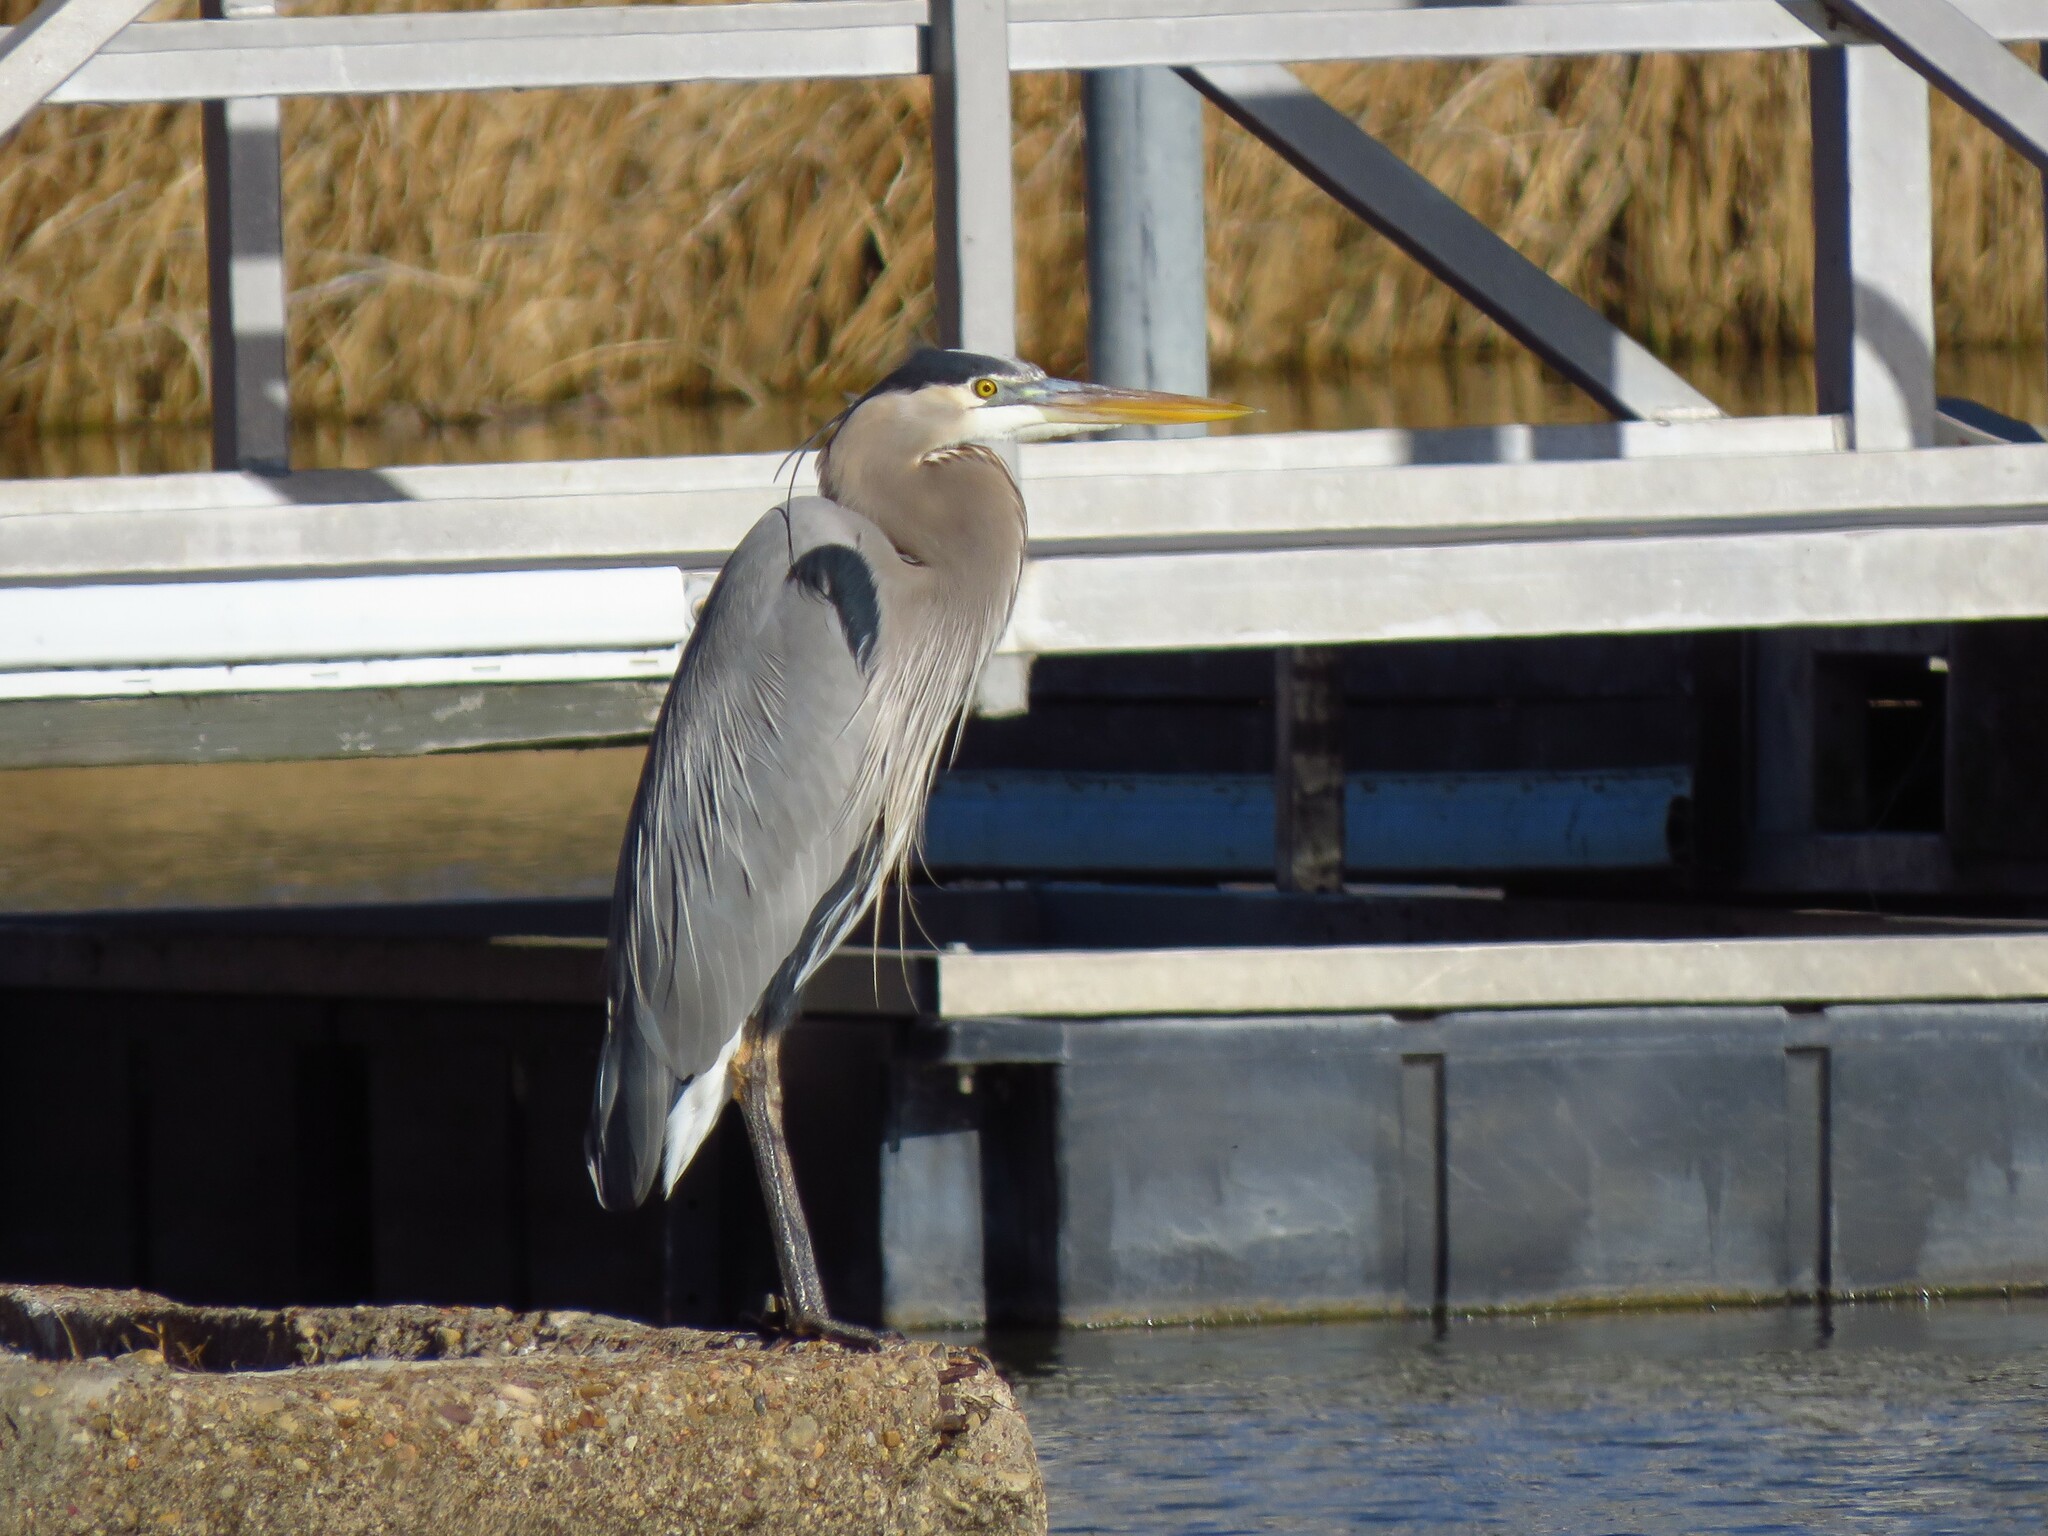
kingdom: Animalia
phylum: Chordata
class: Aves
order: Pelecaniformes
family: Ardeidae
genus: Ardea
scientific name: Ardea herodias
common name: Great blue heron
